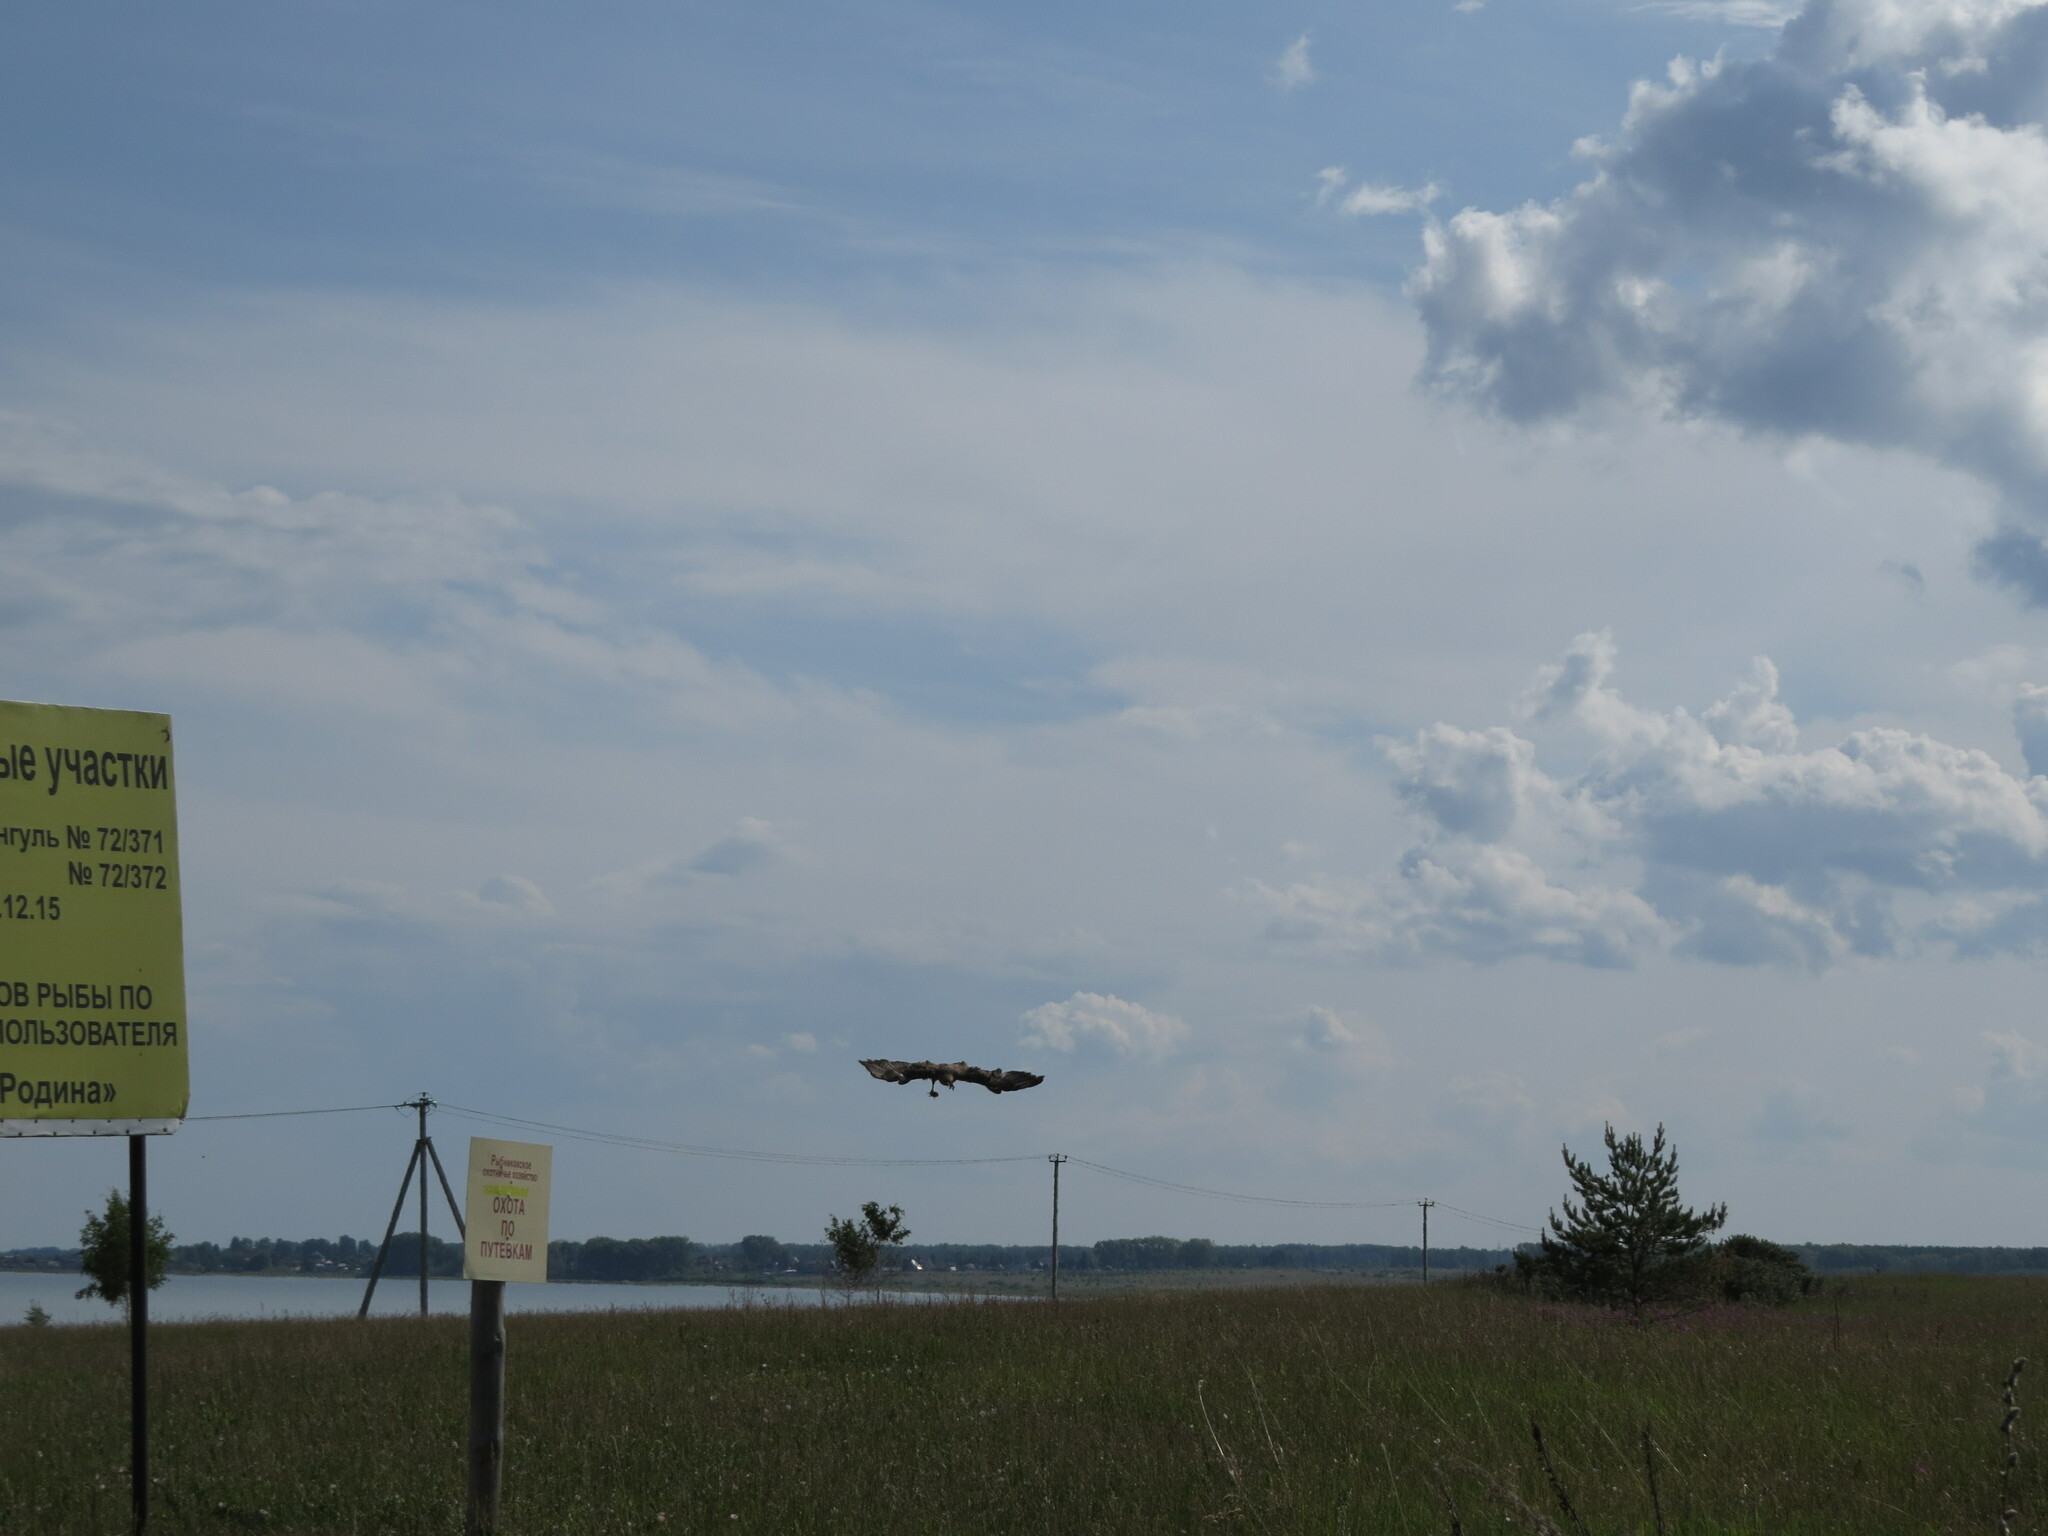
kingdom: Animalia
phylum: Chordata
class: Aves
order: Accipitriformes
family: Accipitridae
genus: Buteo
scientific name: Buteo buteo
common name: Common buzzard
